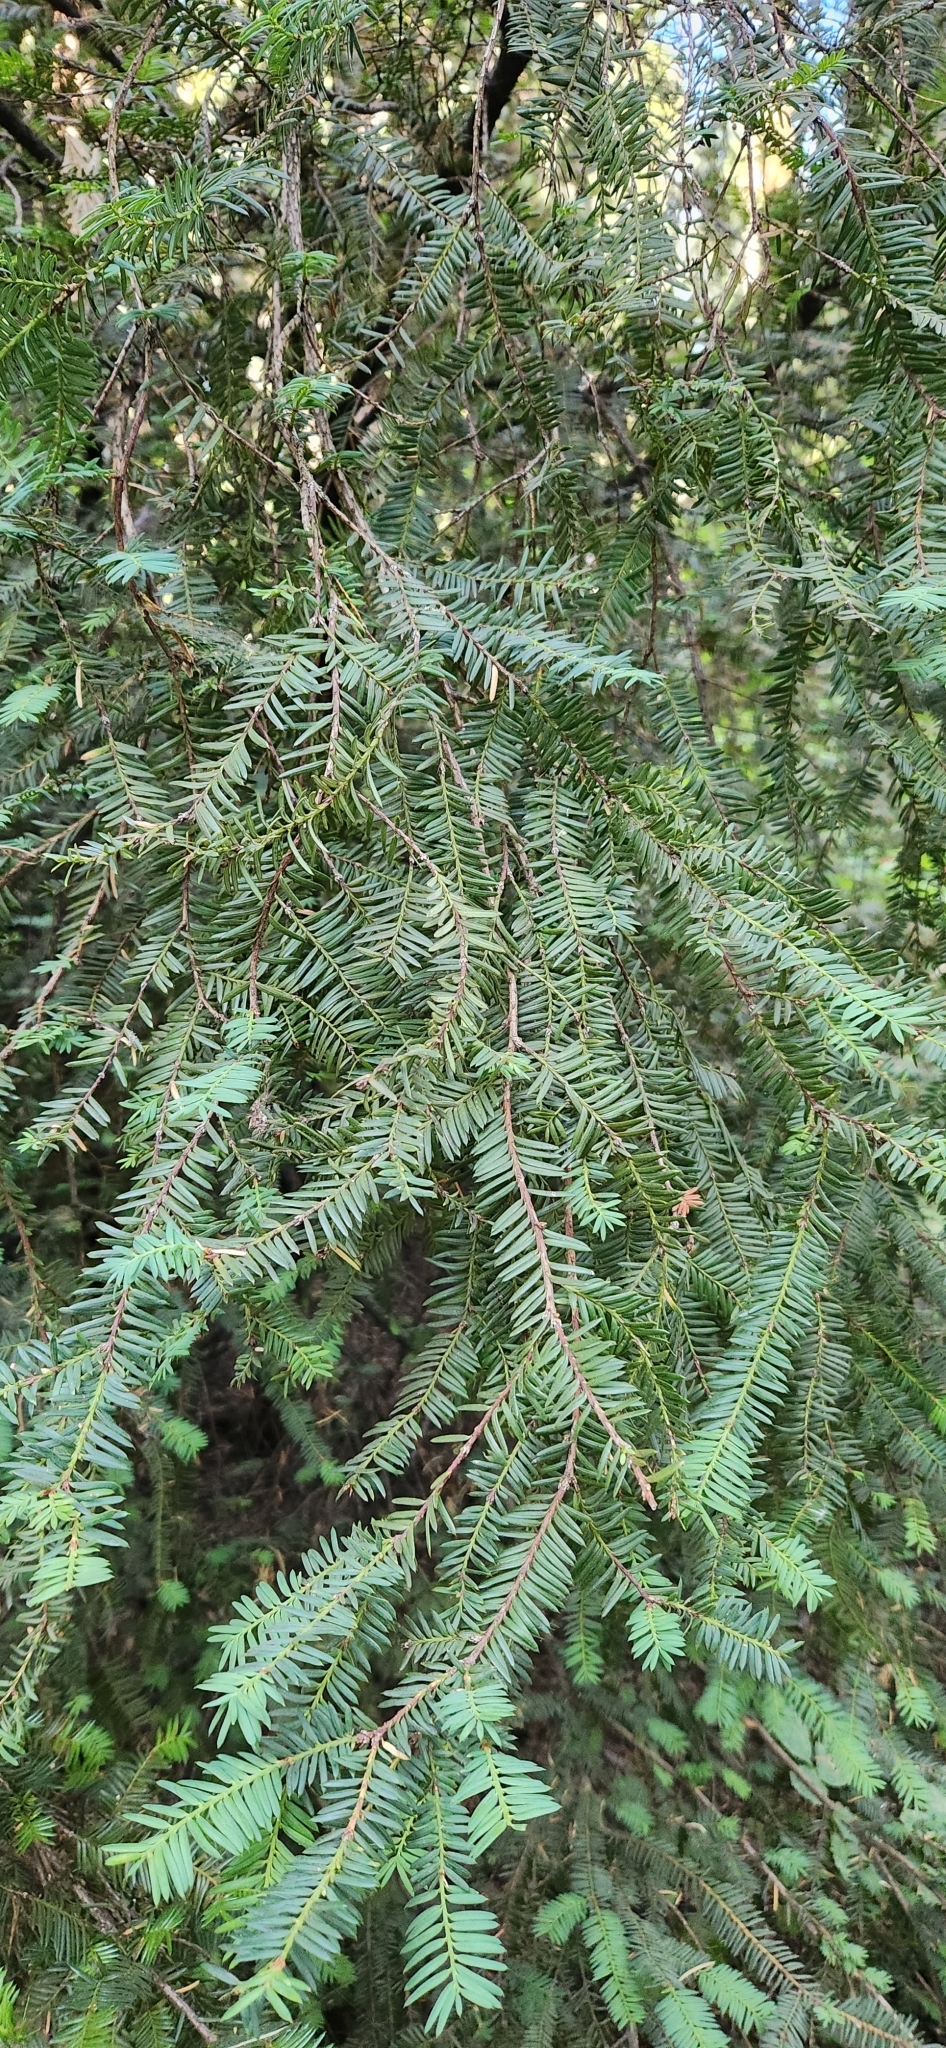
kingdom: Plantae
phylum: Tracheophyta
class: Pinopsida
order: Pinales
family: Taxaceae
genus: Taxus
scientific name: Taxus brevifolia
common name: Pacific yew
